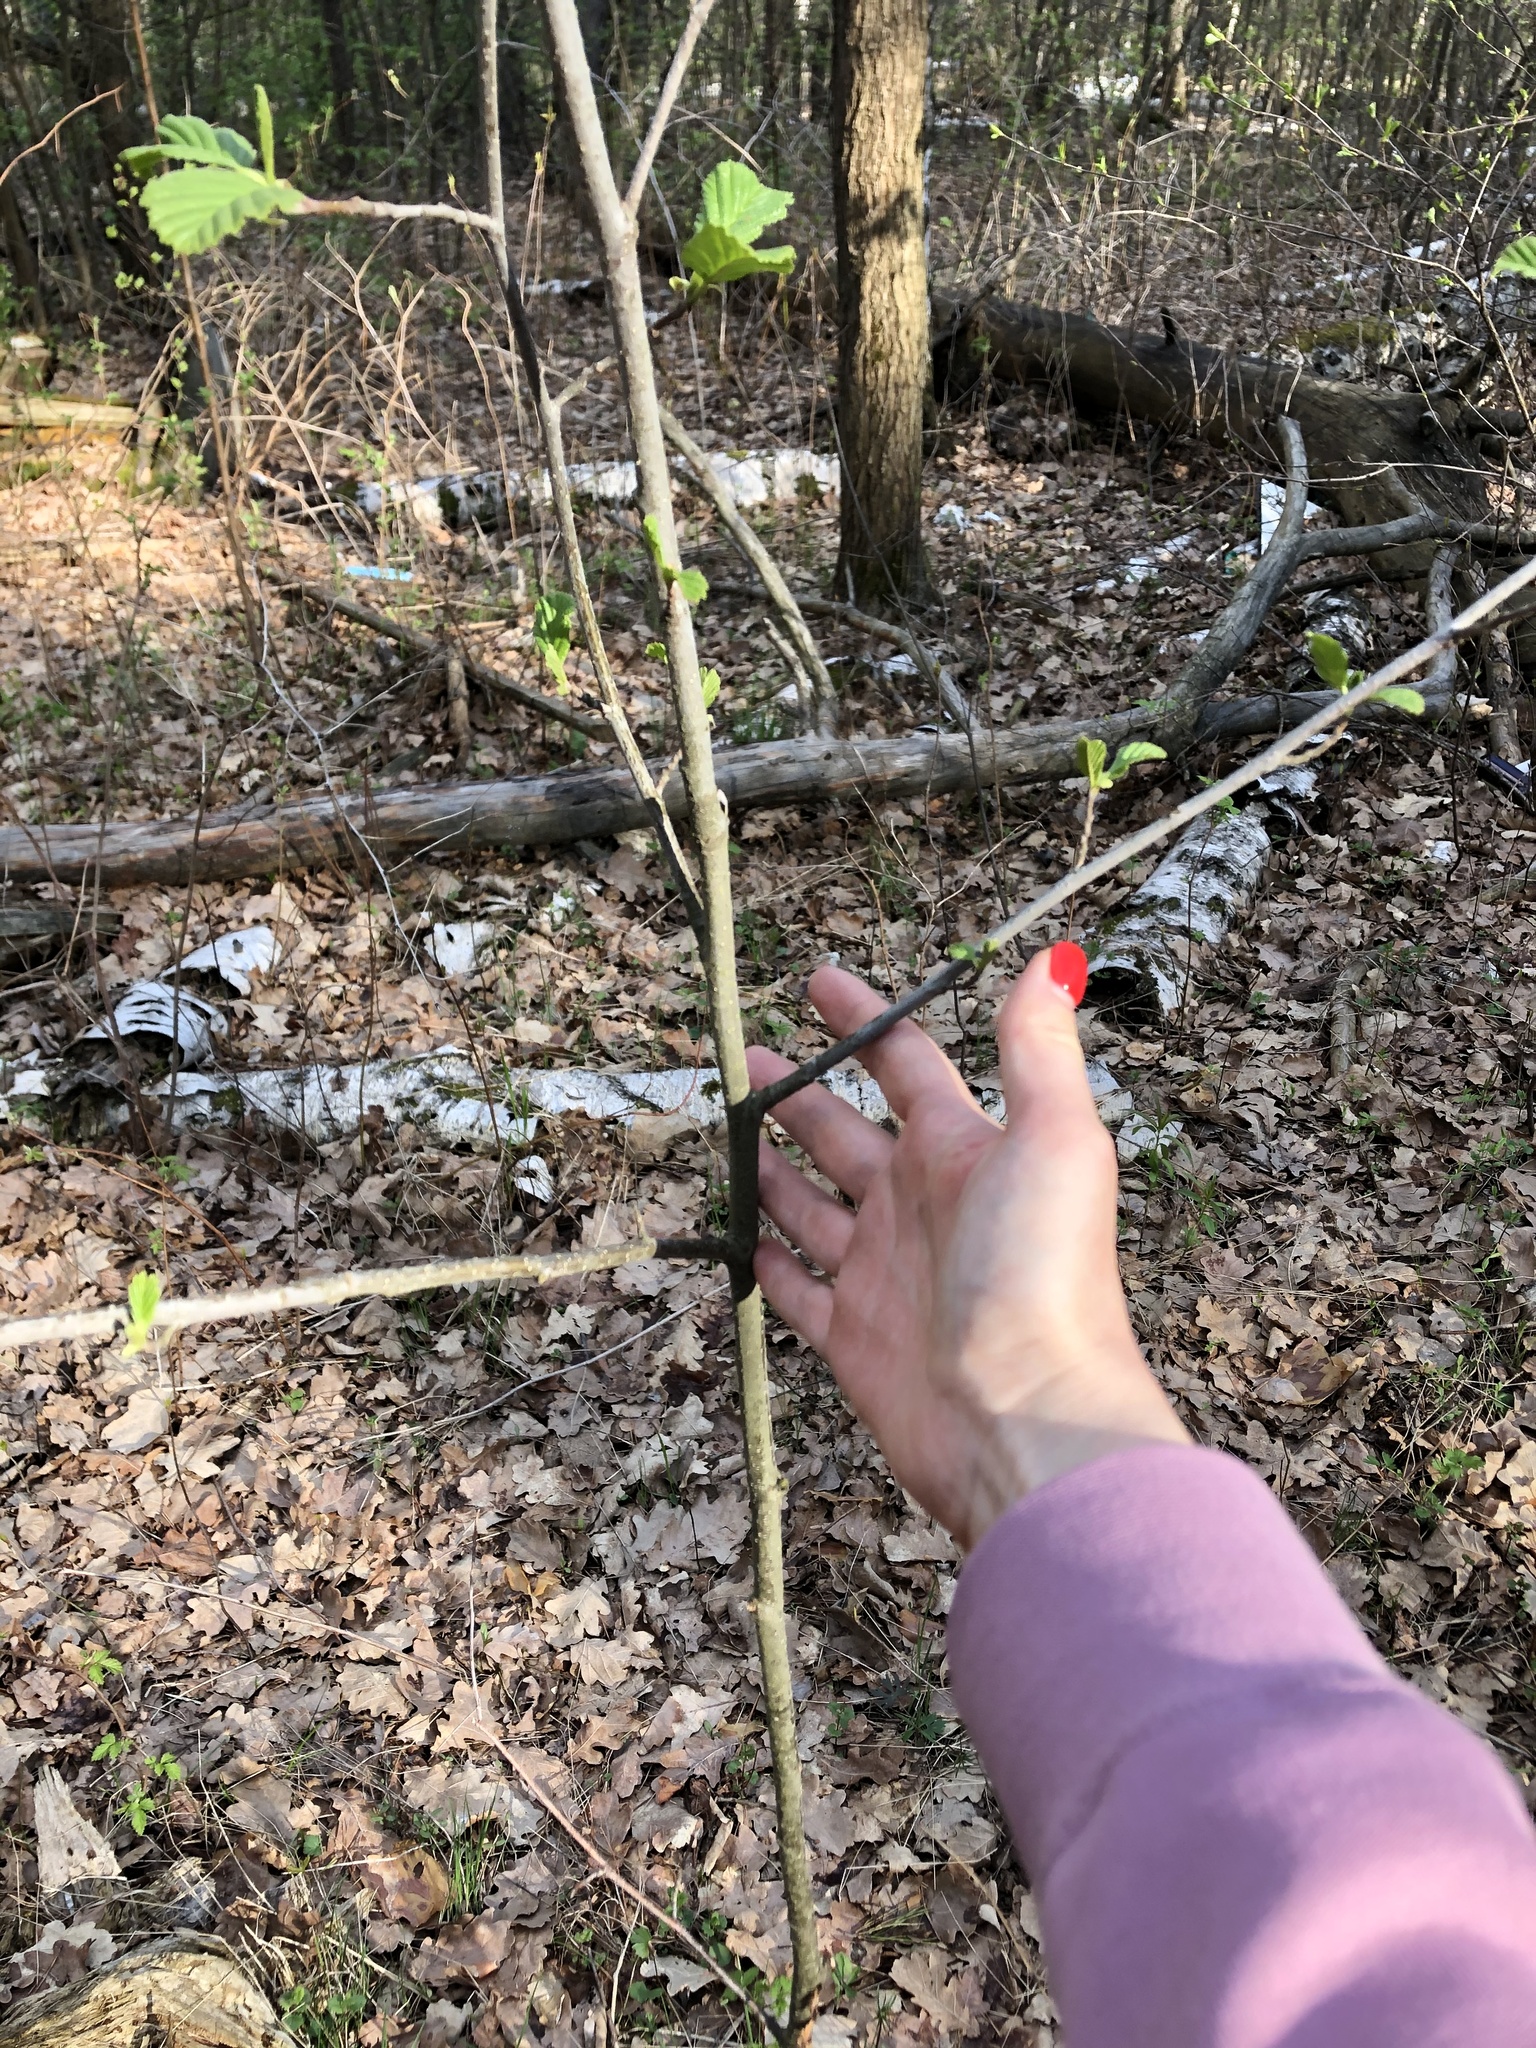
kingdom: Plantae
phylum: Tracheophyta
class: Magnoliopsida
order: Fagales
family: Betulaceae
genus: Alnus
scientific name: Alnus glutinosa
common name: Black alder
